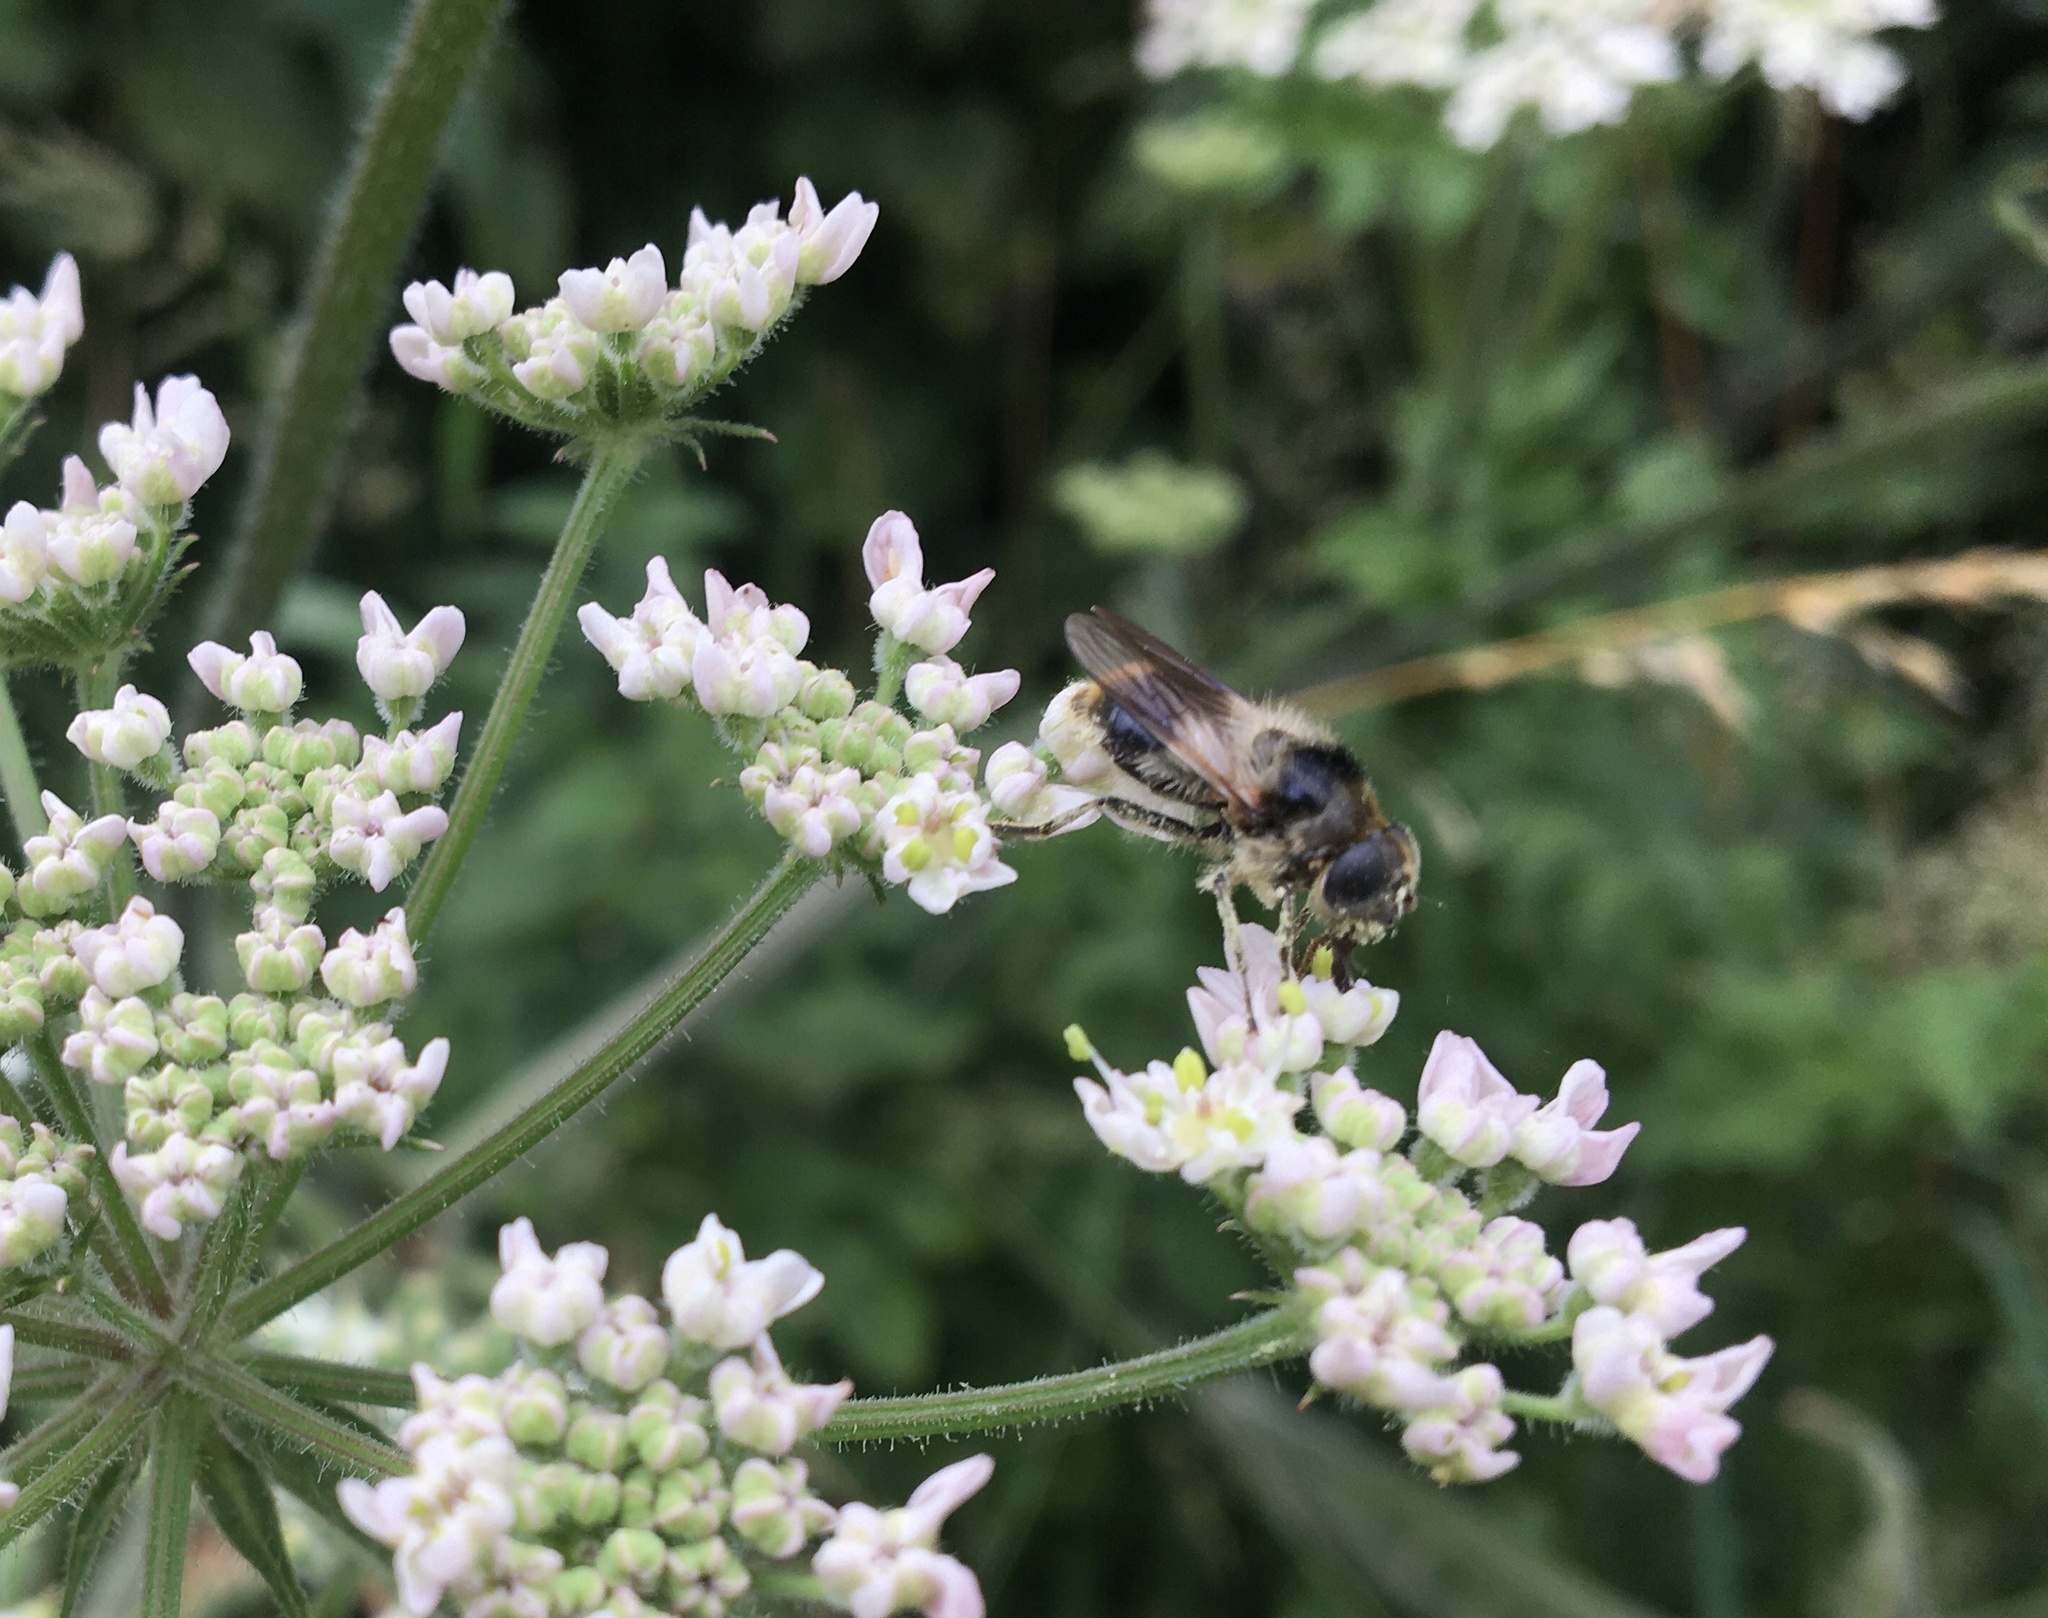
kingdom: Animalia
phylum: Arthropoda
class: Insecta
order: Diptera
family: Syrphidae
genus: Cheilosia
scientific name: Cheilosia illustrata
